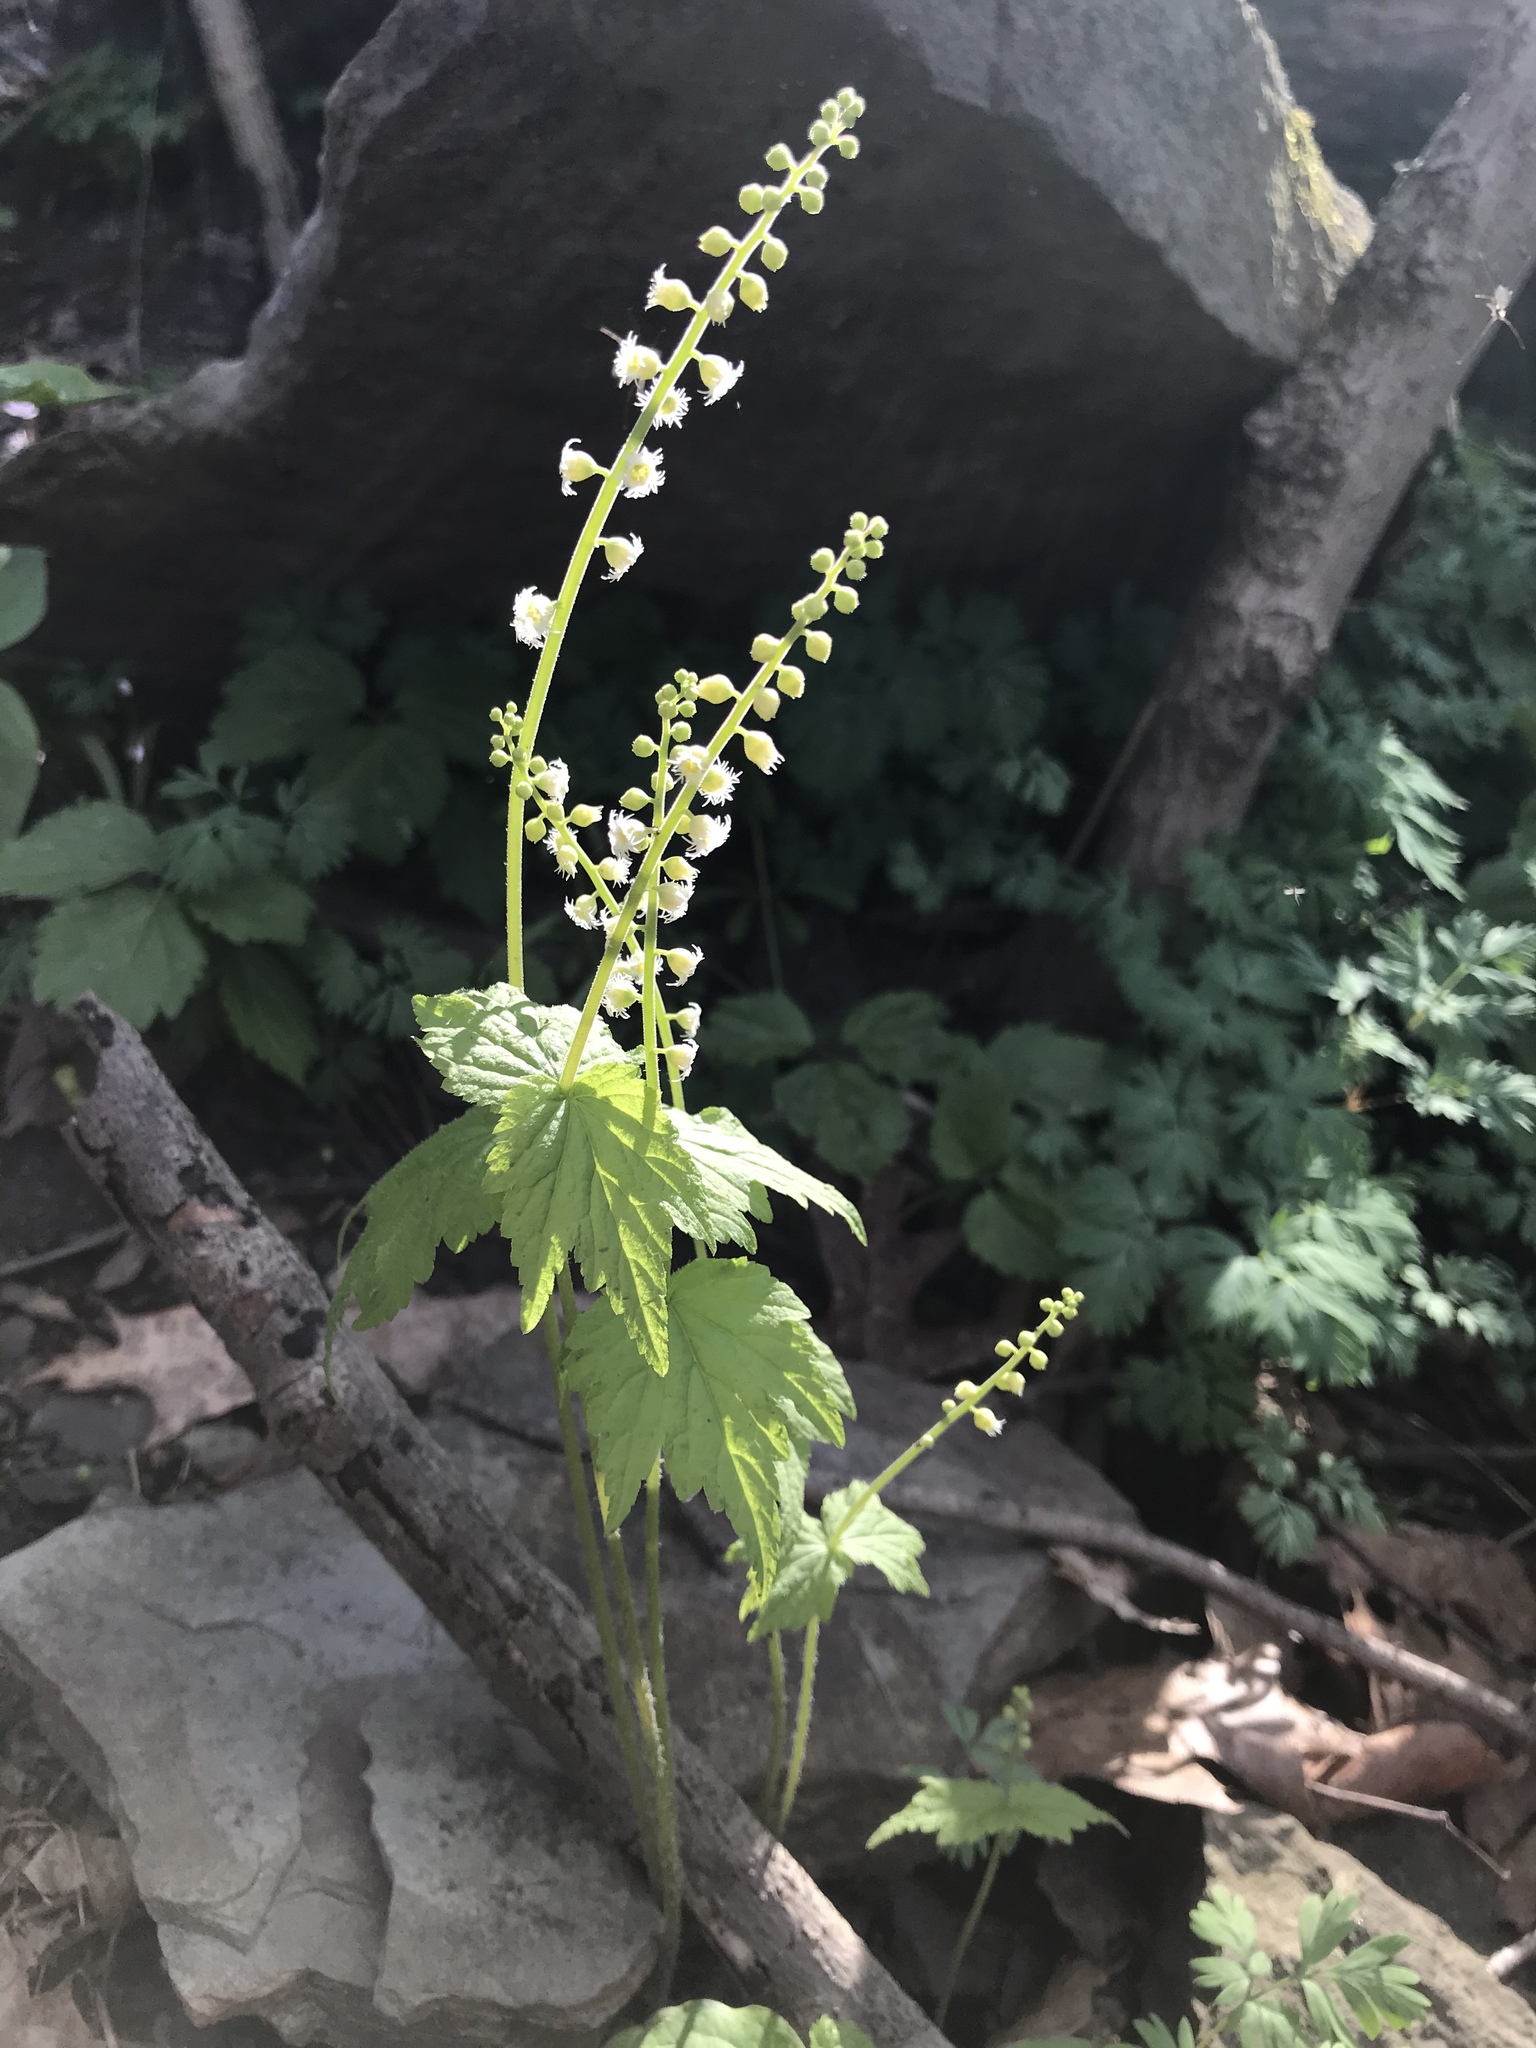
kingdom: Plantae
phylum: Tracheophyta
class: Magnoliopsida
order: Saxifragales
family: Saxifragaceae
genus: Mitella
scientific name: Mitella diphylla
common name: Coolwort
